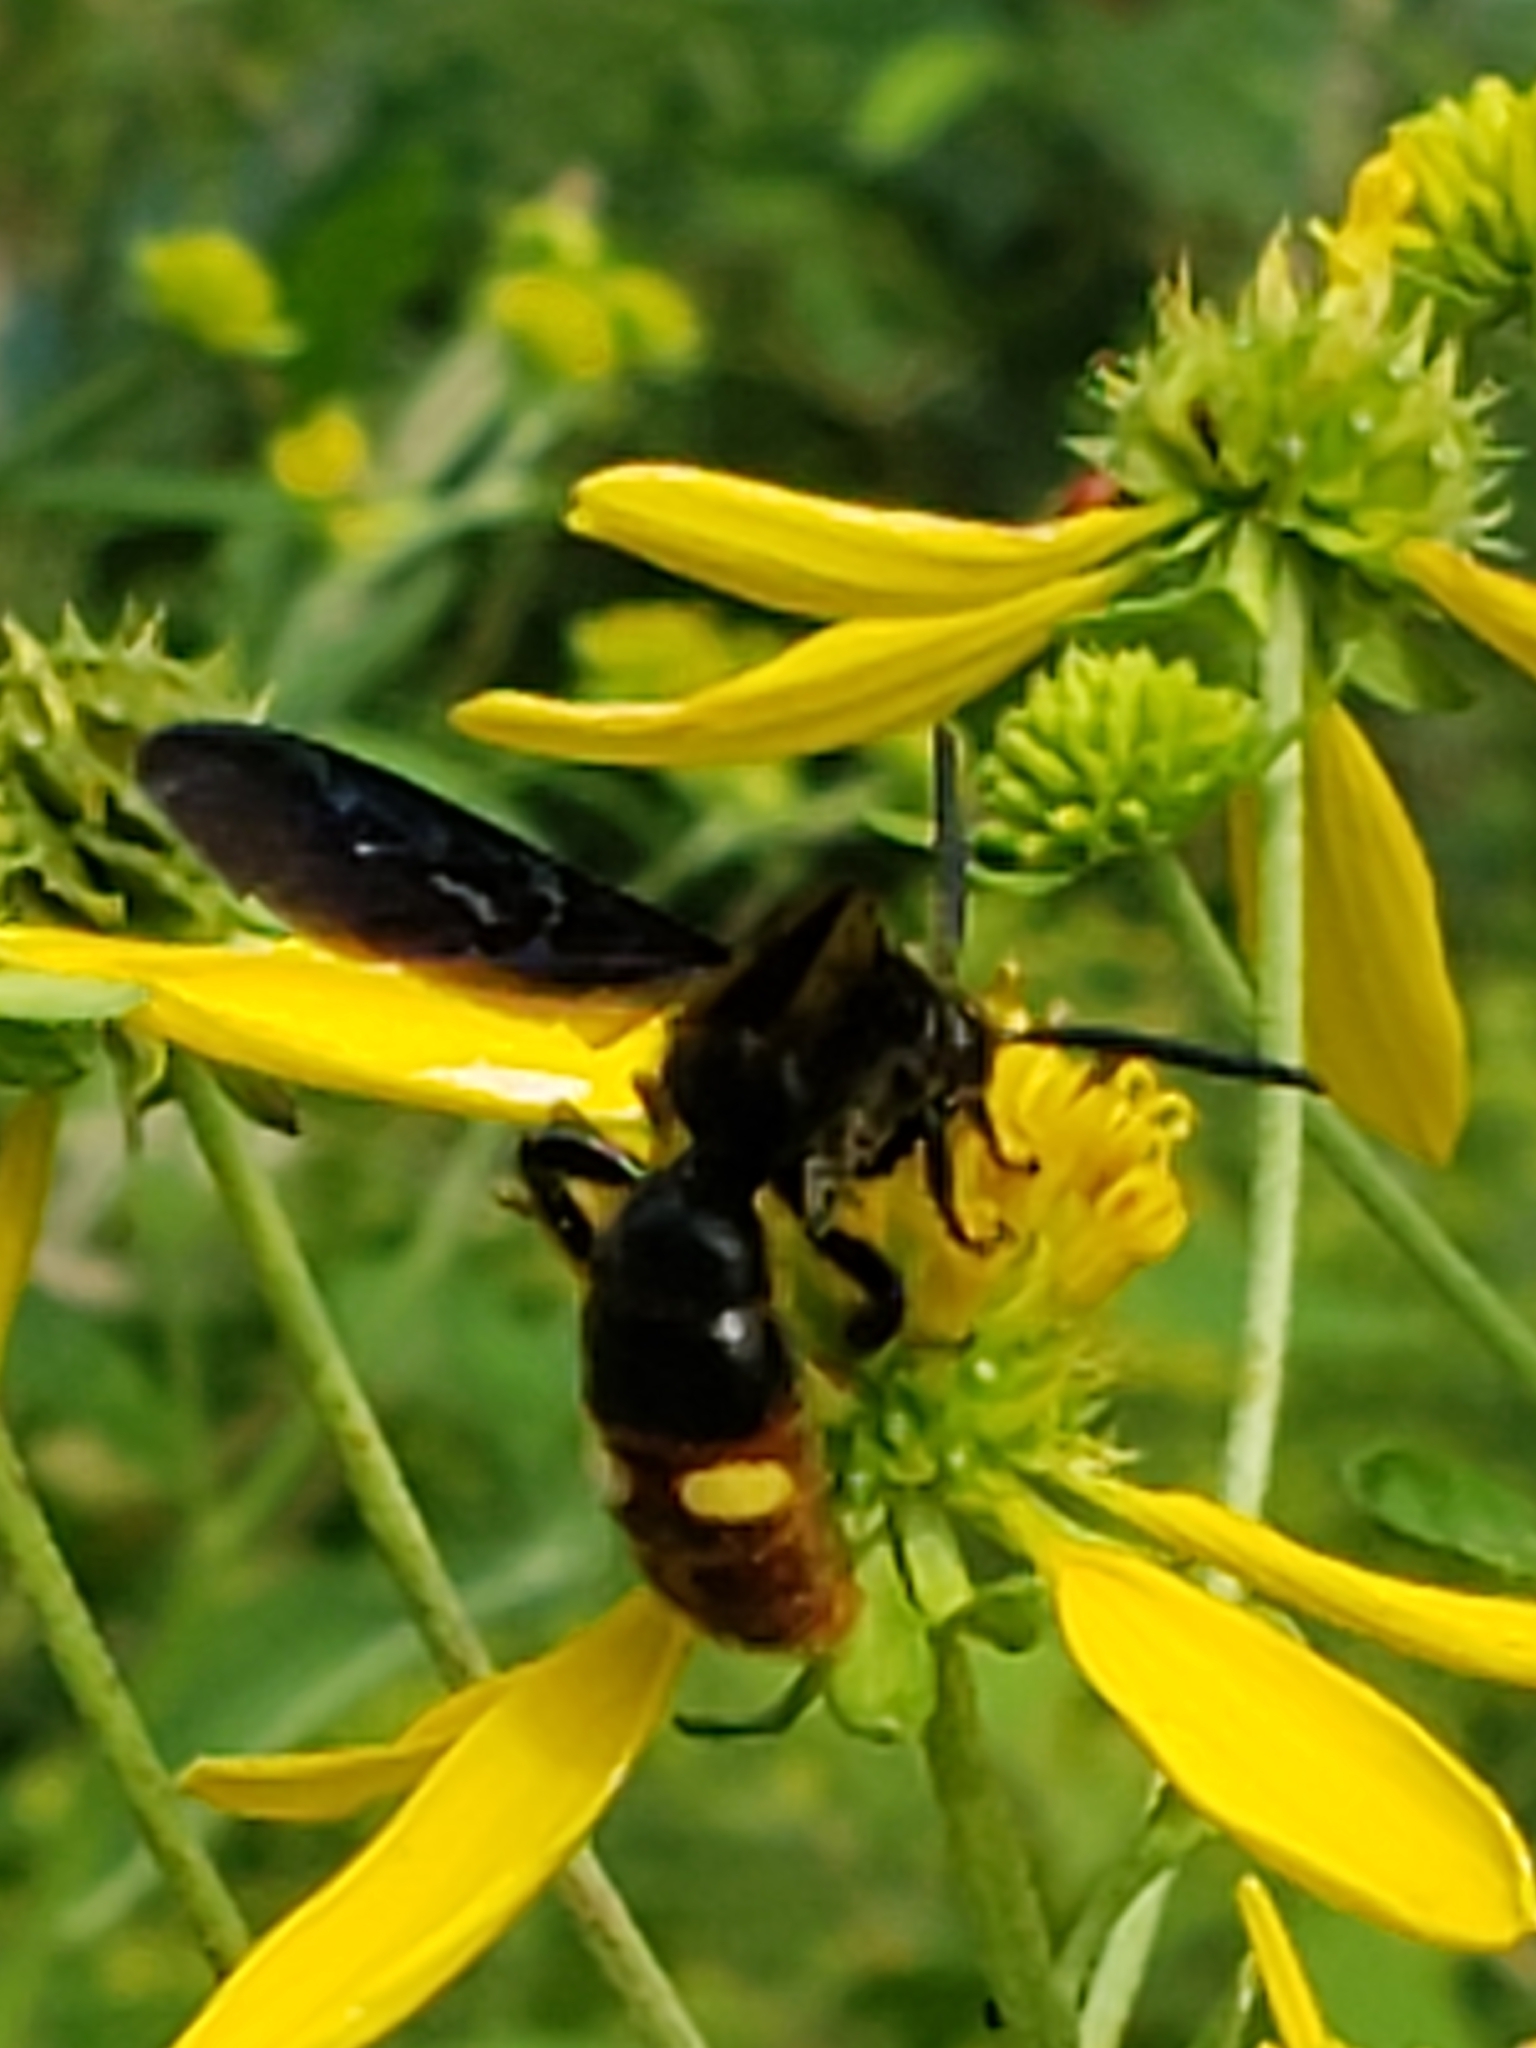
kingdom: Animalia
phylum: Arthropoda
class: Insecta
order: Hymenoptera
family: Scoliidae
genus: Scolia
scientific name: Scolia dubia
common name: Blue-winged scoliid wasp
